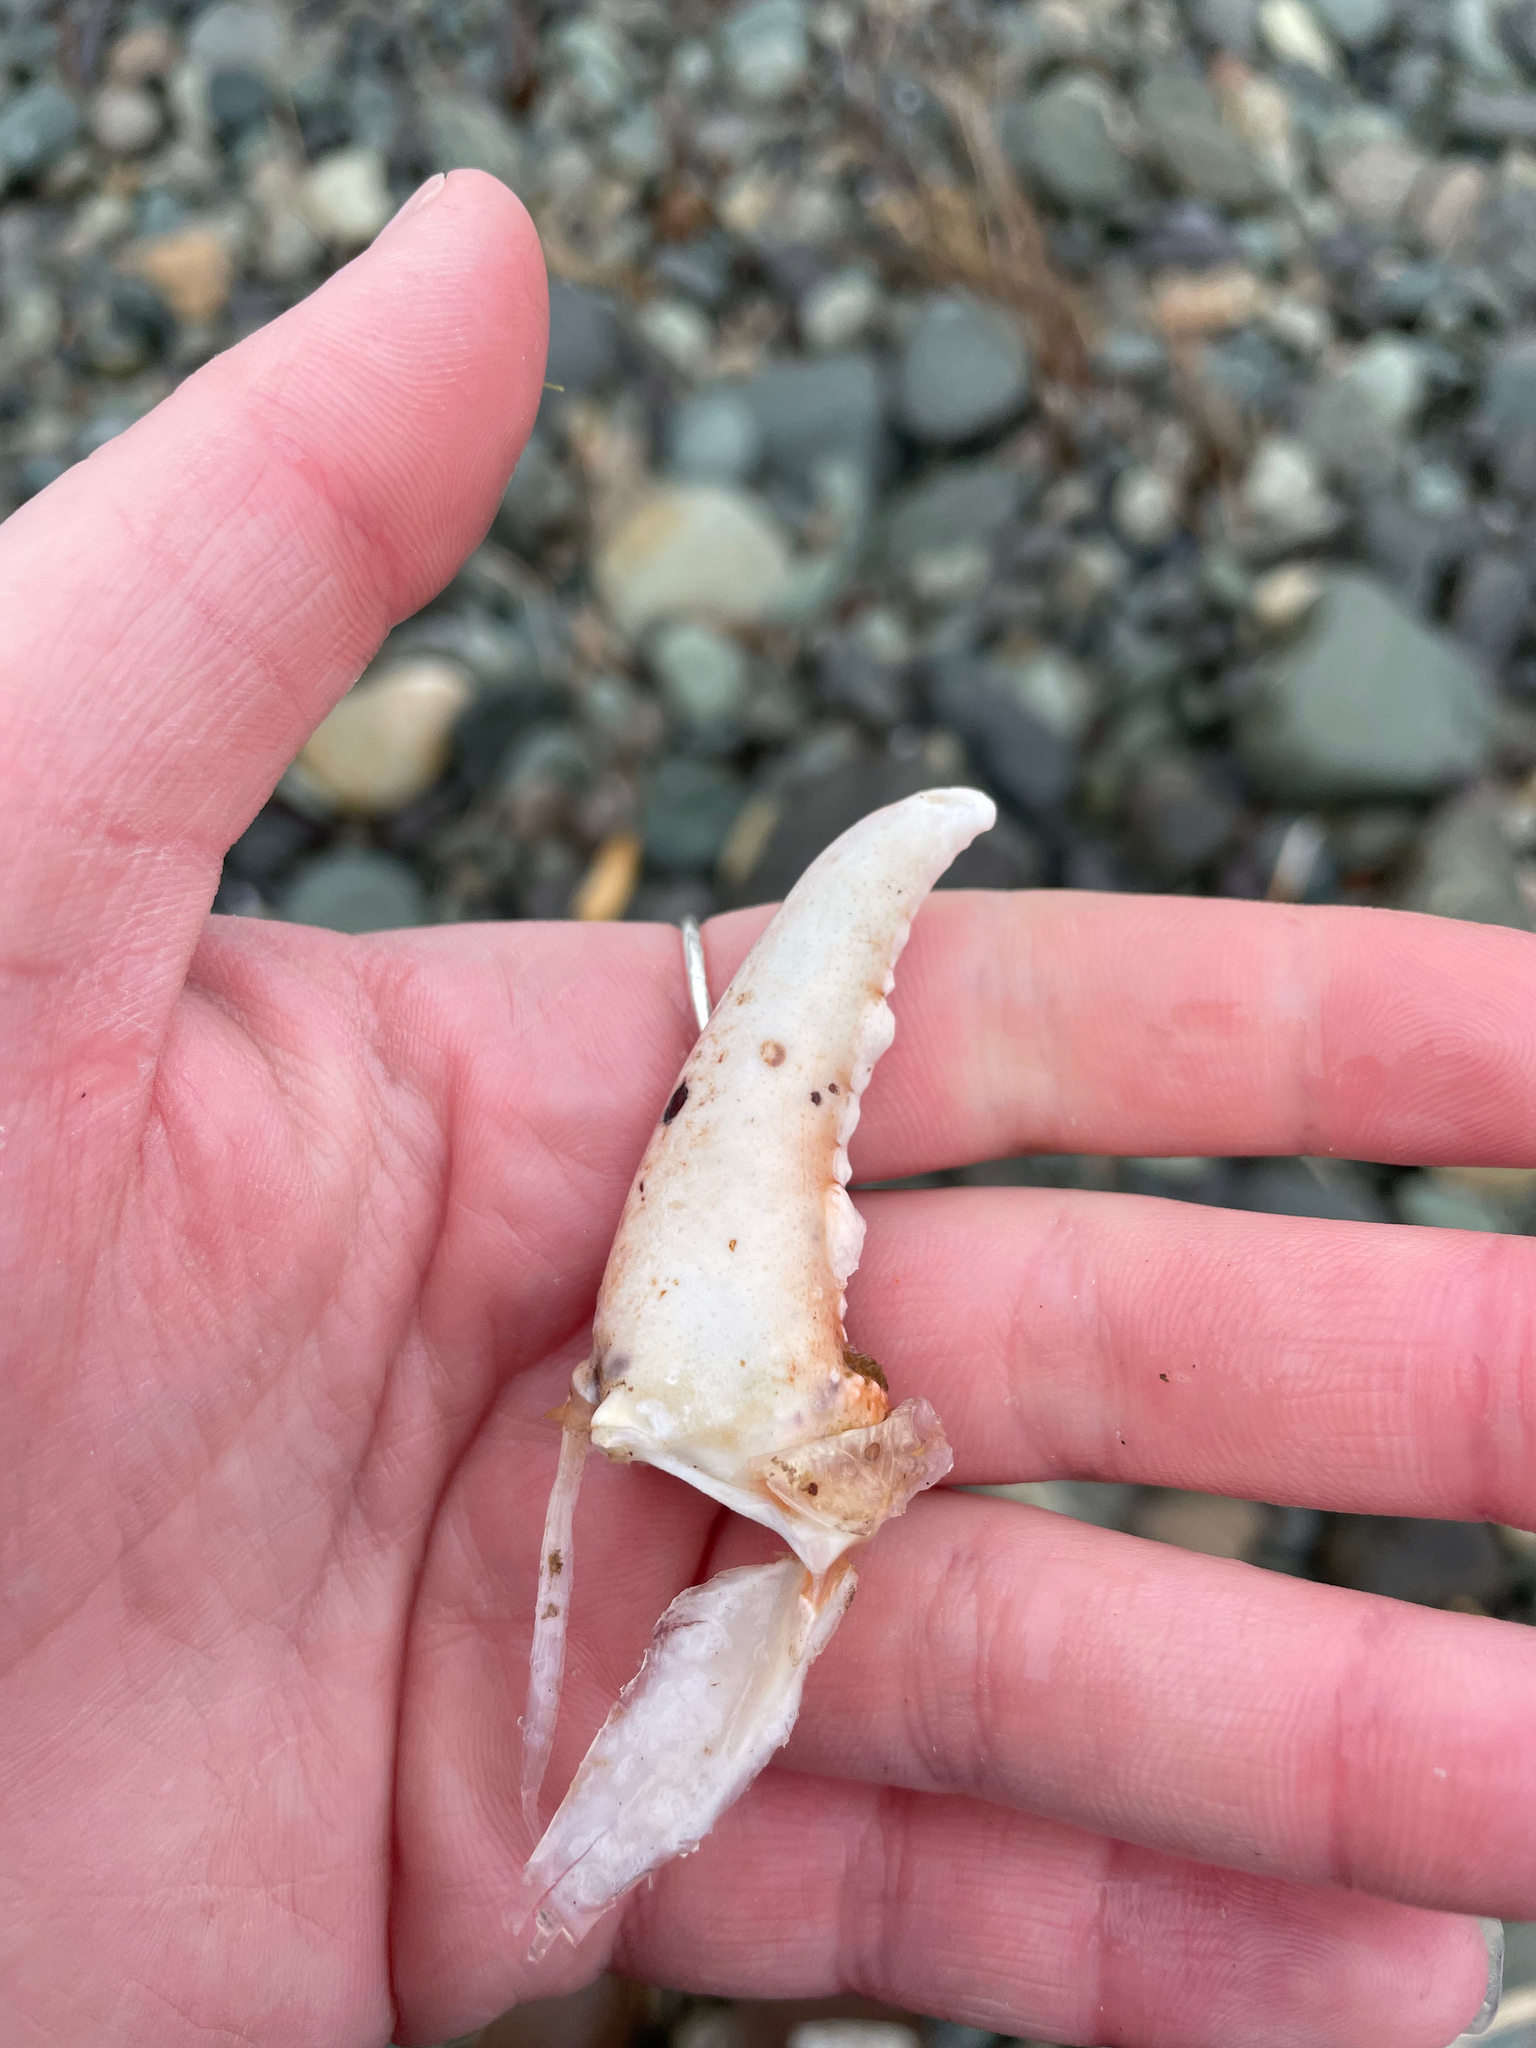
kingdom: Animalia
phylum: Arthropoda
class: Malacostraca
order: Decapoda
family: Nephropidae
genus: Homarus
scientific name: Homarus americanus
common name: American lobster
